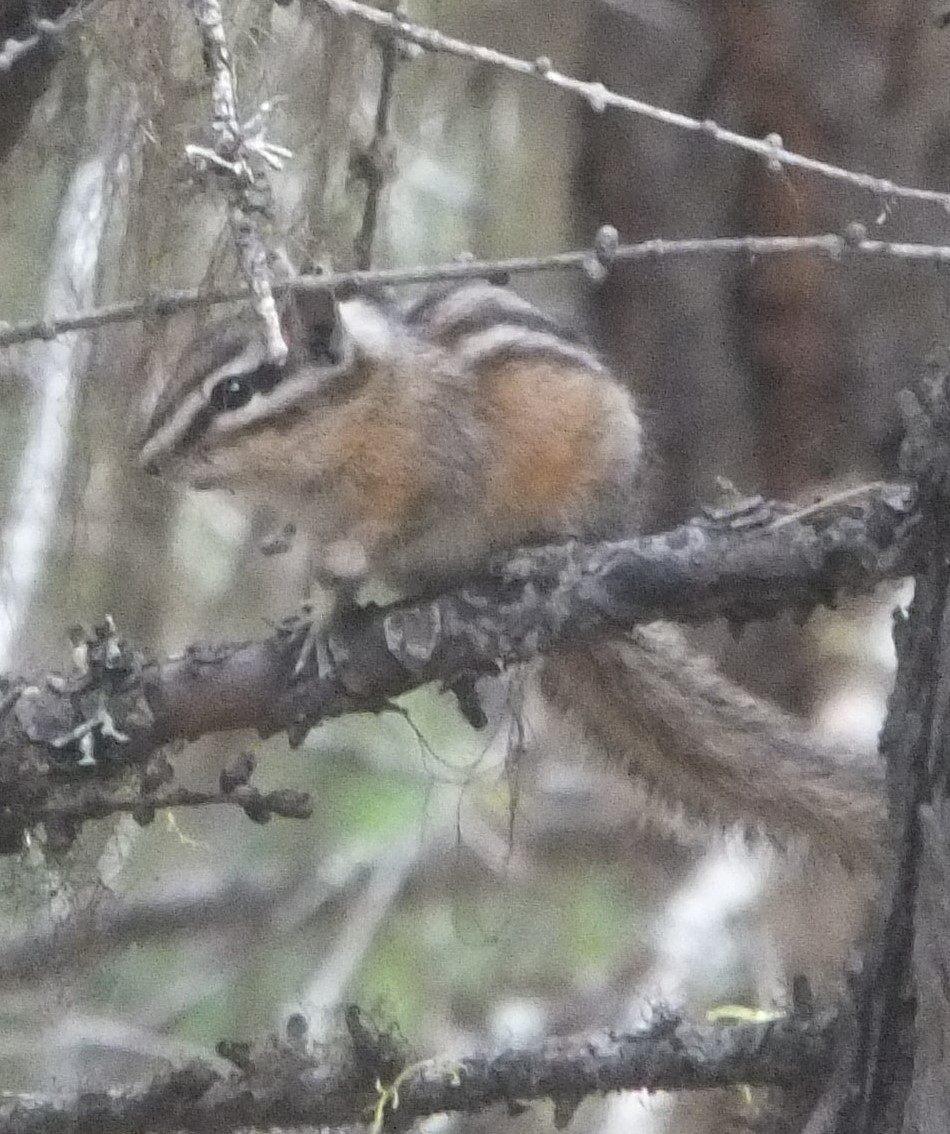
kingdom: Animalia
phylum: Chordata
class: Mammalia
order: Rodentia
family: Sciuridae
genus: Tamias
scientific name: Tamias amoenus
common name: Yellow-pine chipmunk
